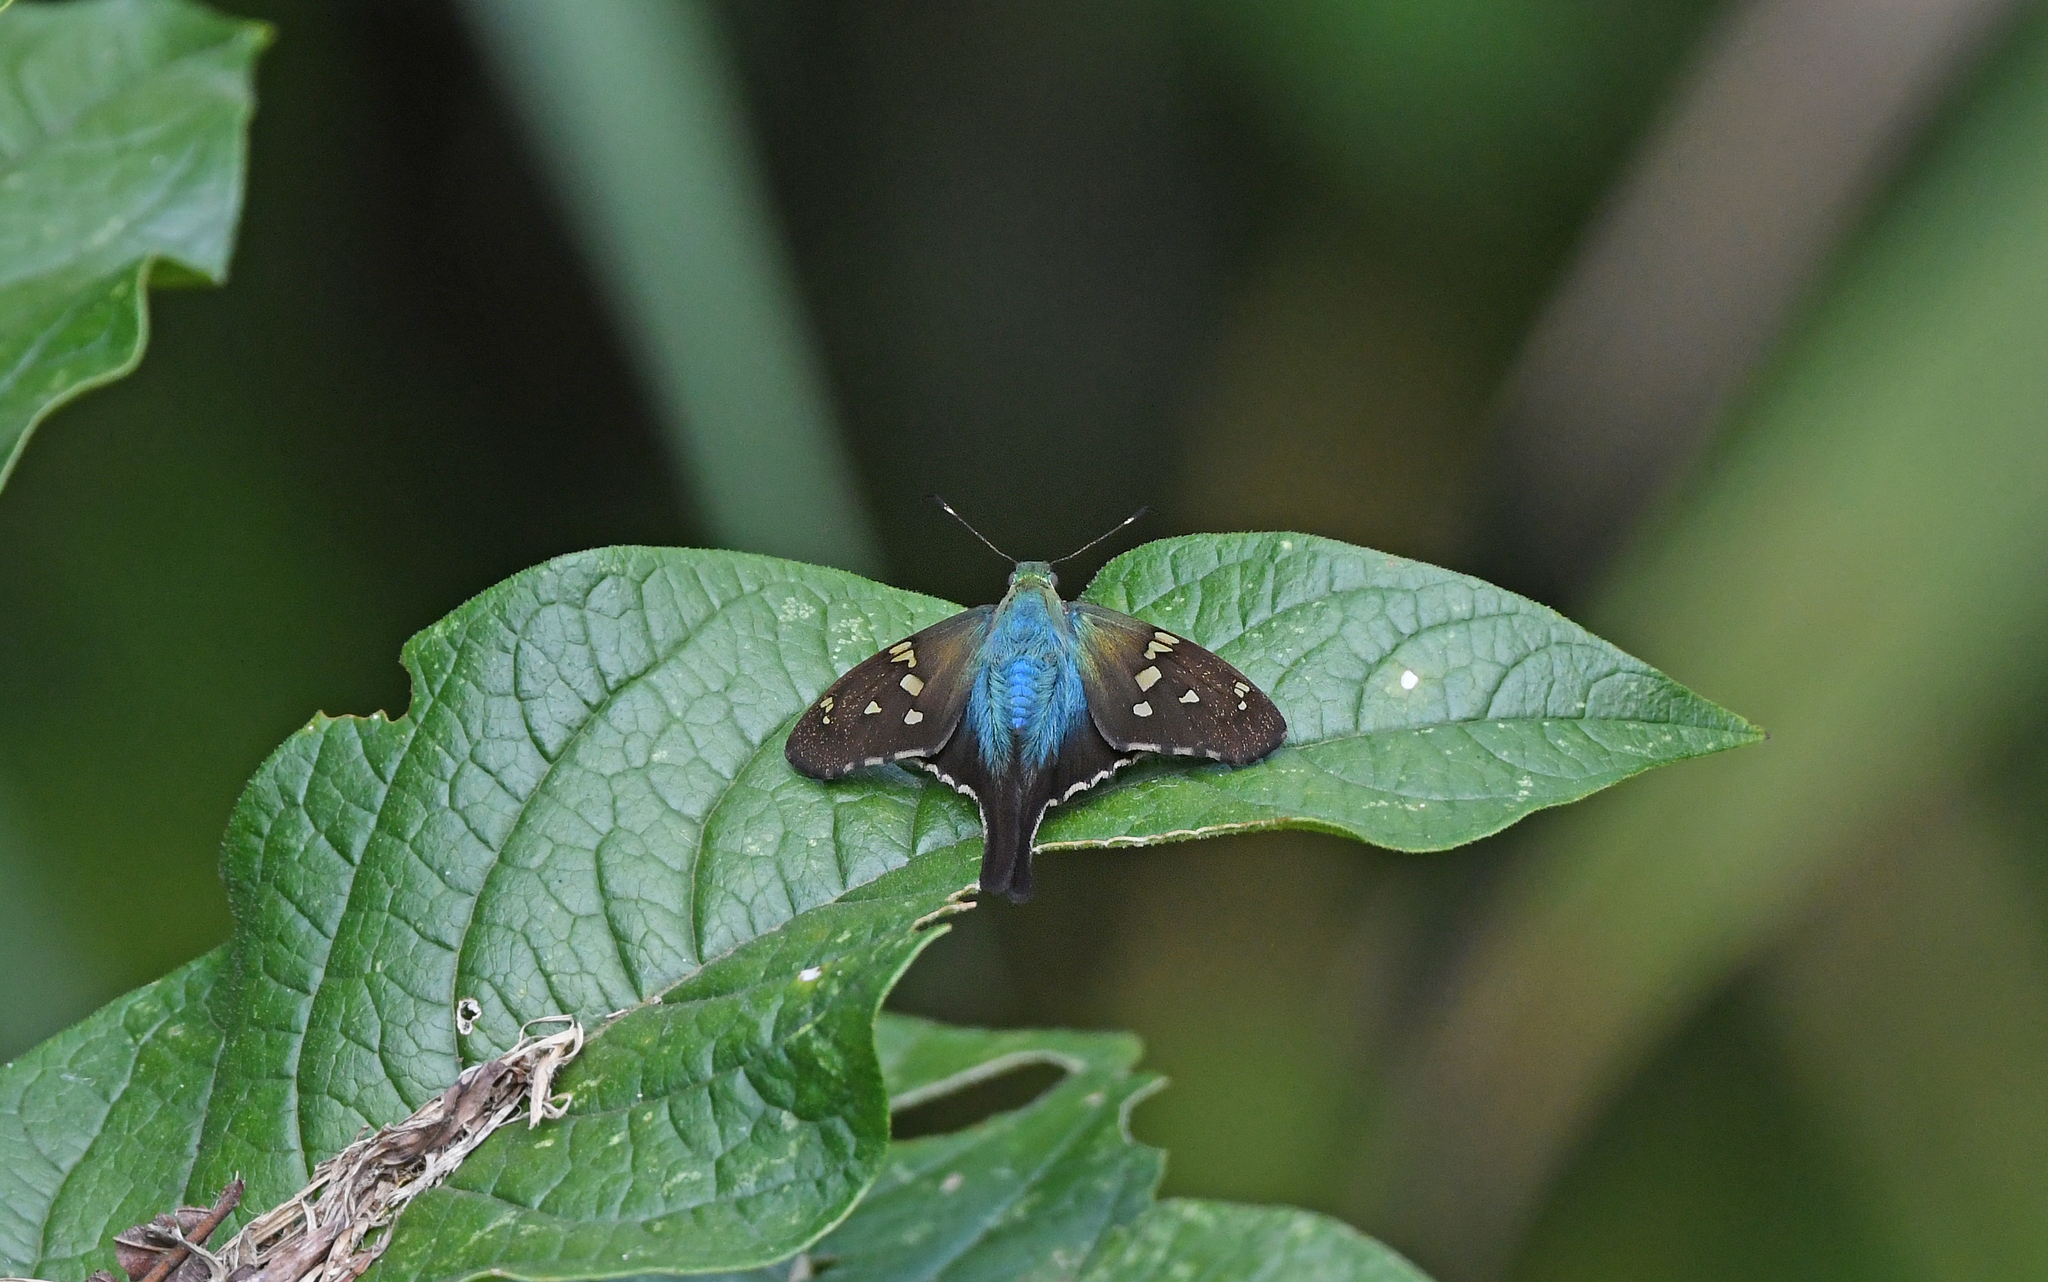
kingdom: Animalia
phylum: Arthropoda
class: Insecta
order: Lepidoptera
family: Hesperiidae
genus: Urbanus
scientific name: Urbanus viterboana
